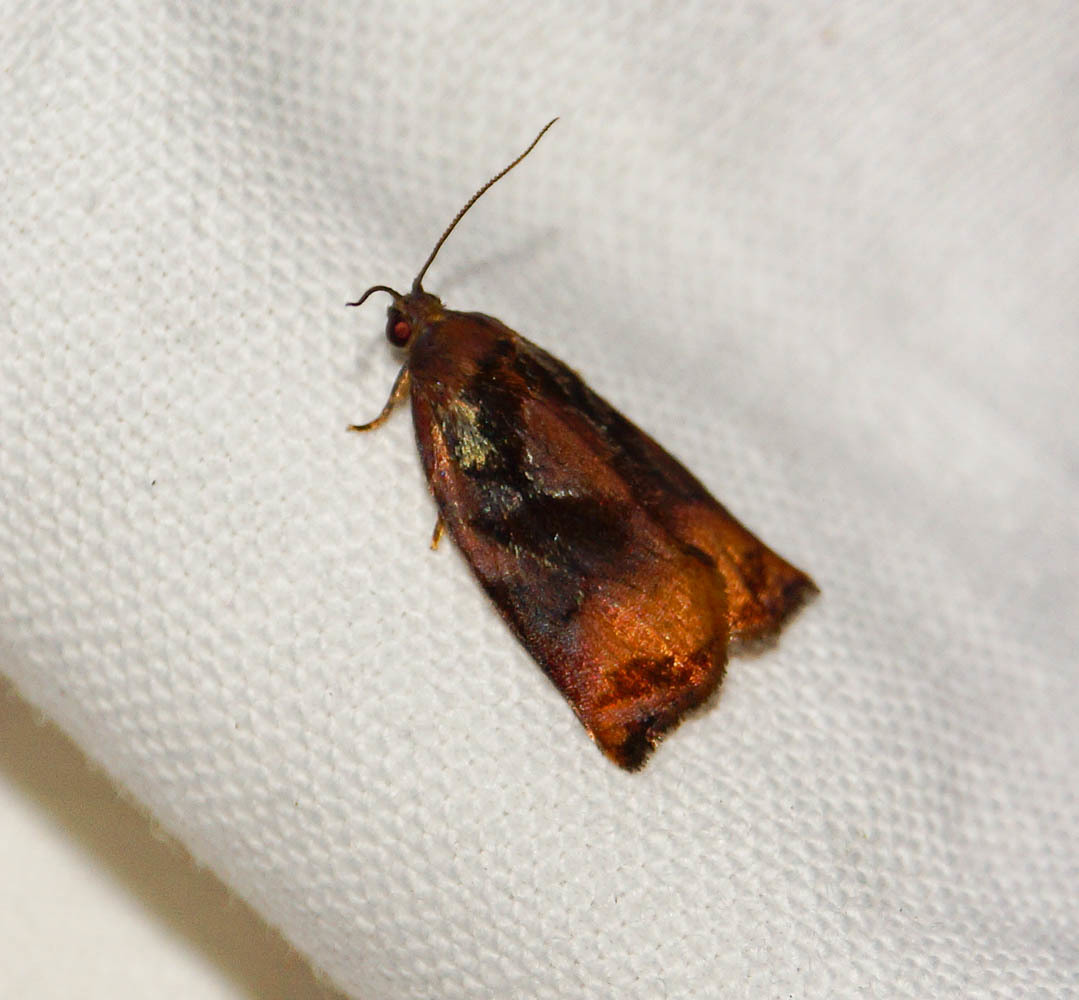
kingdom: Animalia
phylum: Arthropoda
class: Insecta
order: Lepidoptera
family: Tortricidae
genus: Archips
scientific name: Archips podana
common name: Large fruit-tree tortrix
